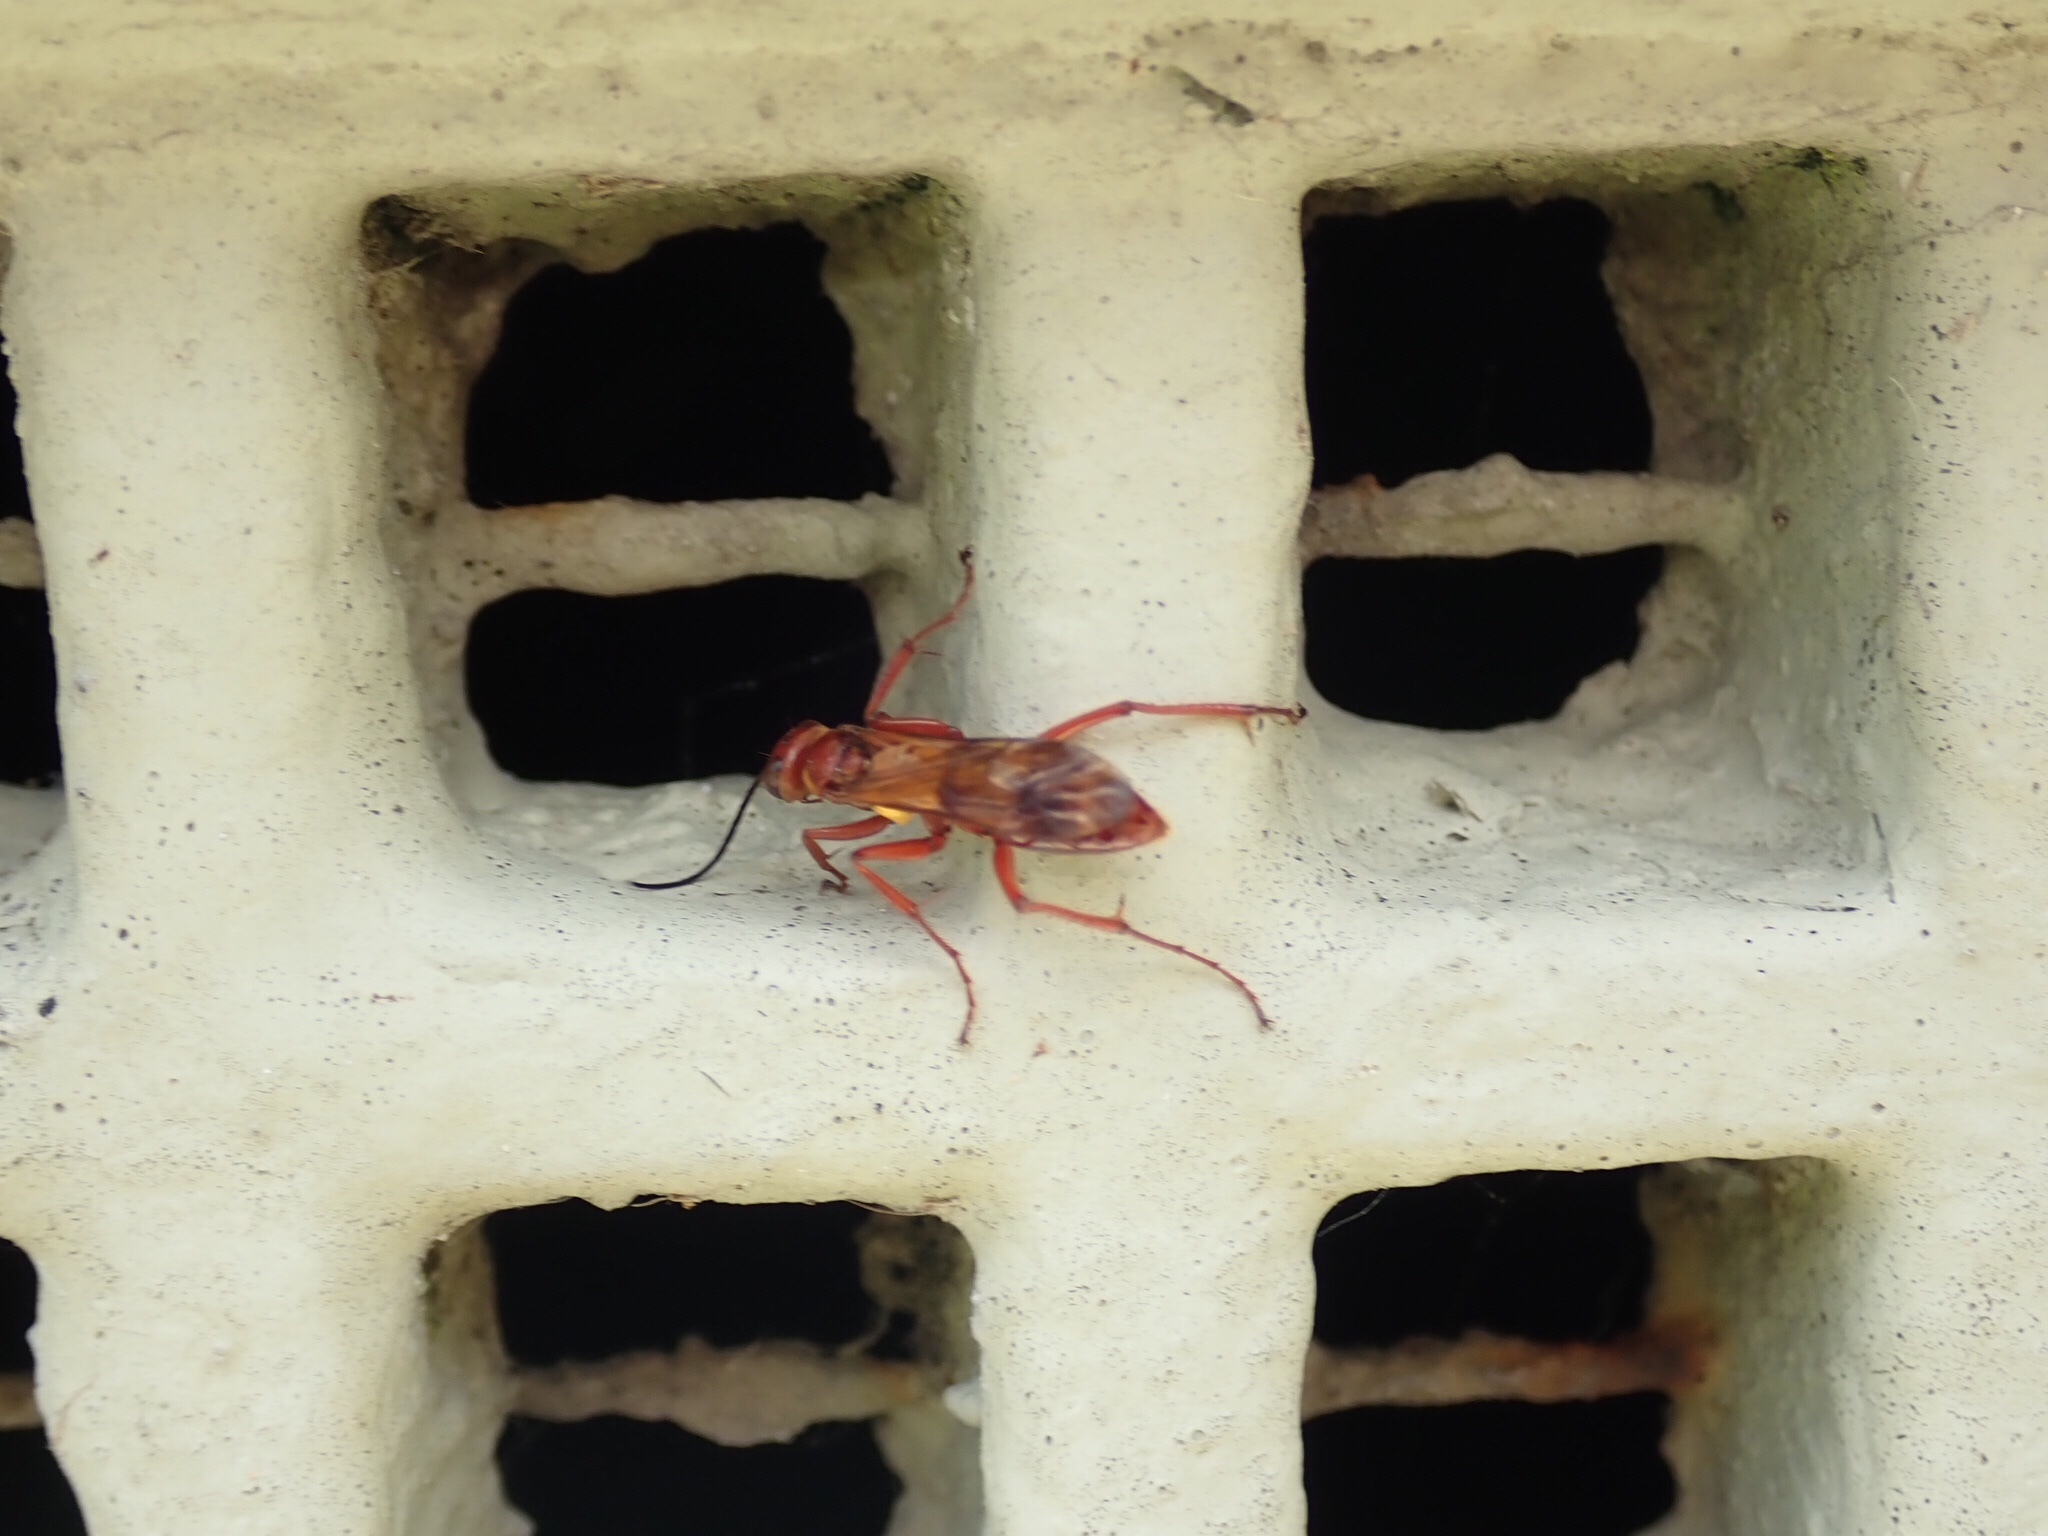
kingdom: Animalia
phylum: Arthropoda
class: Insecta
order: Hymenoptera
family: Pompilidae
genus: Sphictostethus
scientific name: Sphictostethus nitidus
